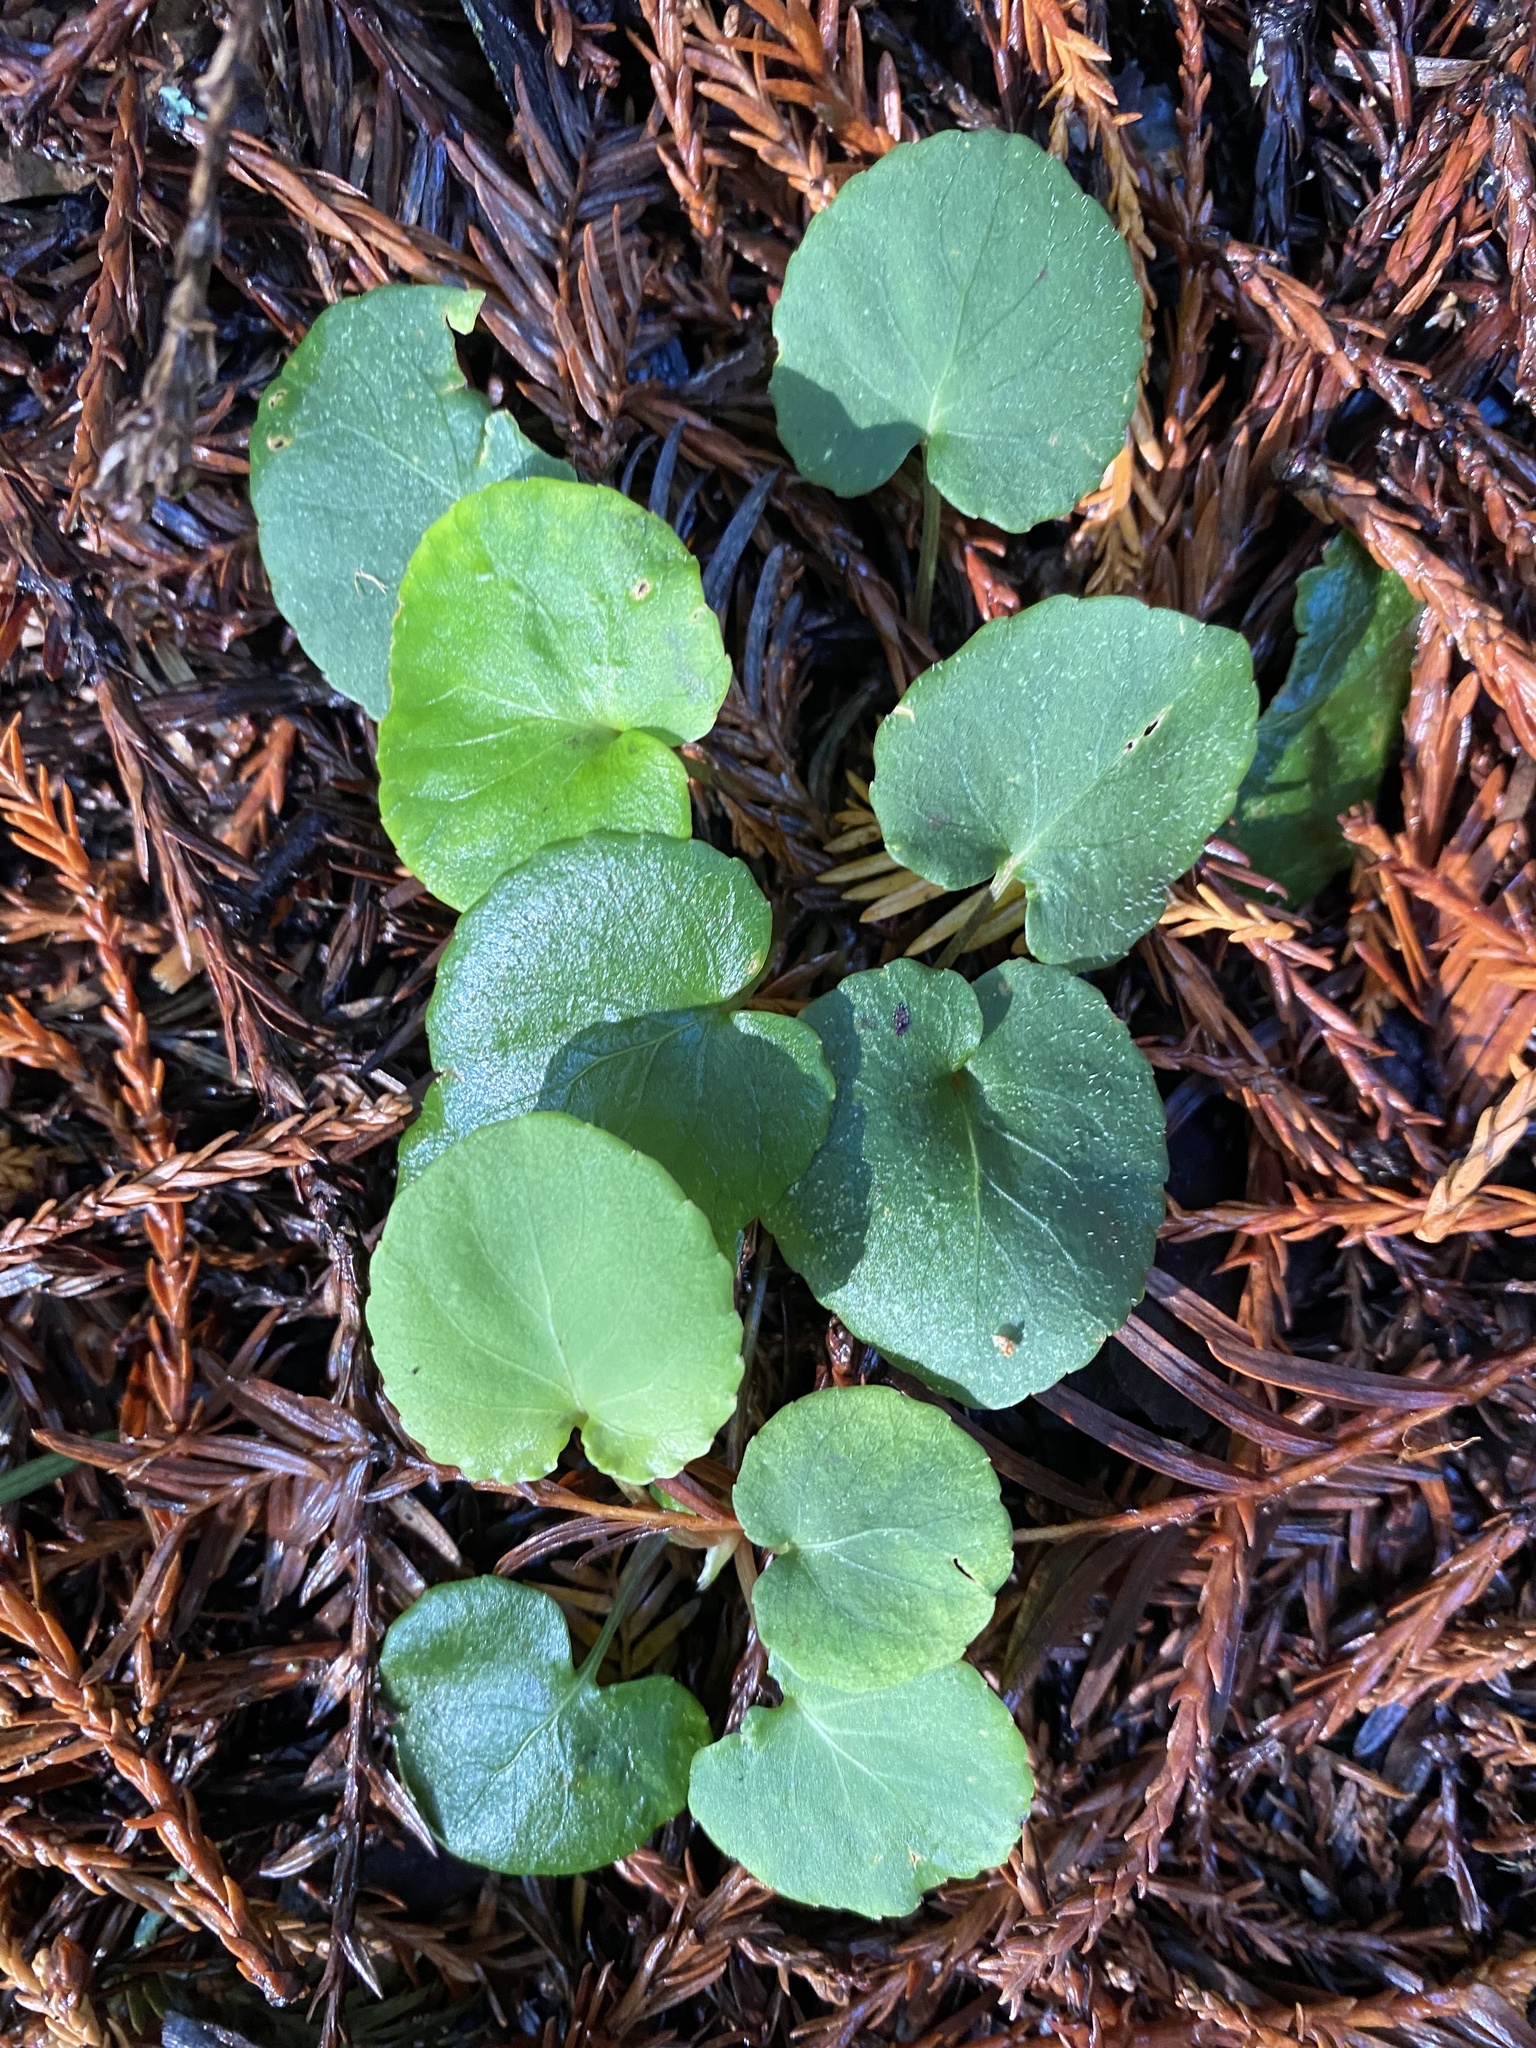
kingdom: Plantae
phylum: Tracheophyta
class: Magnoliopsida
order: Malpighiales
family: Violaceae
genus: Viola
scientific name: Viola sempervirens
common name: Evergreen violet
